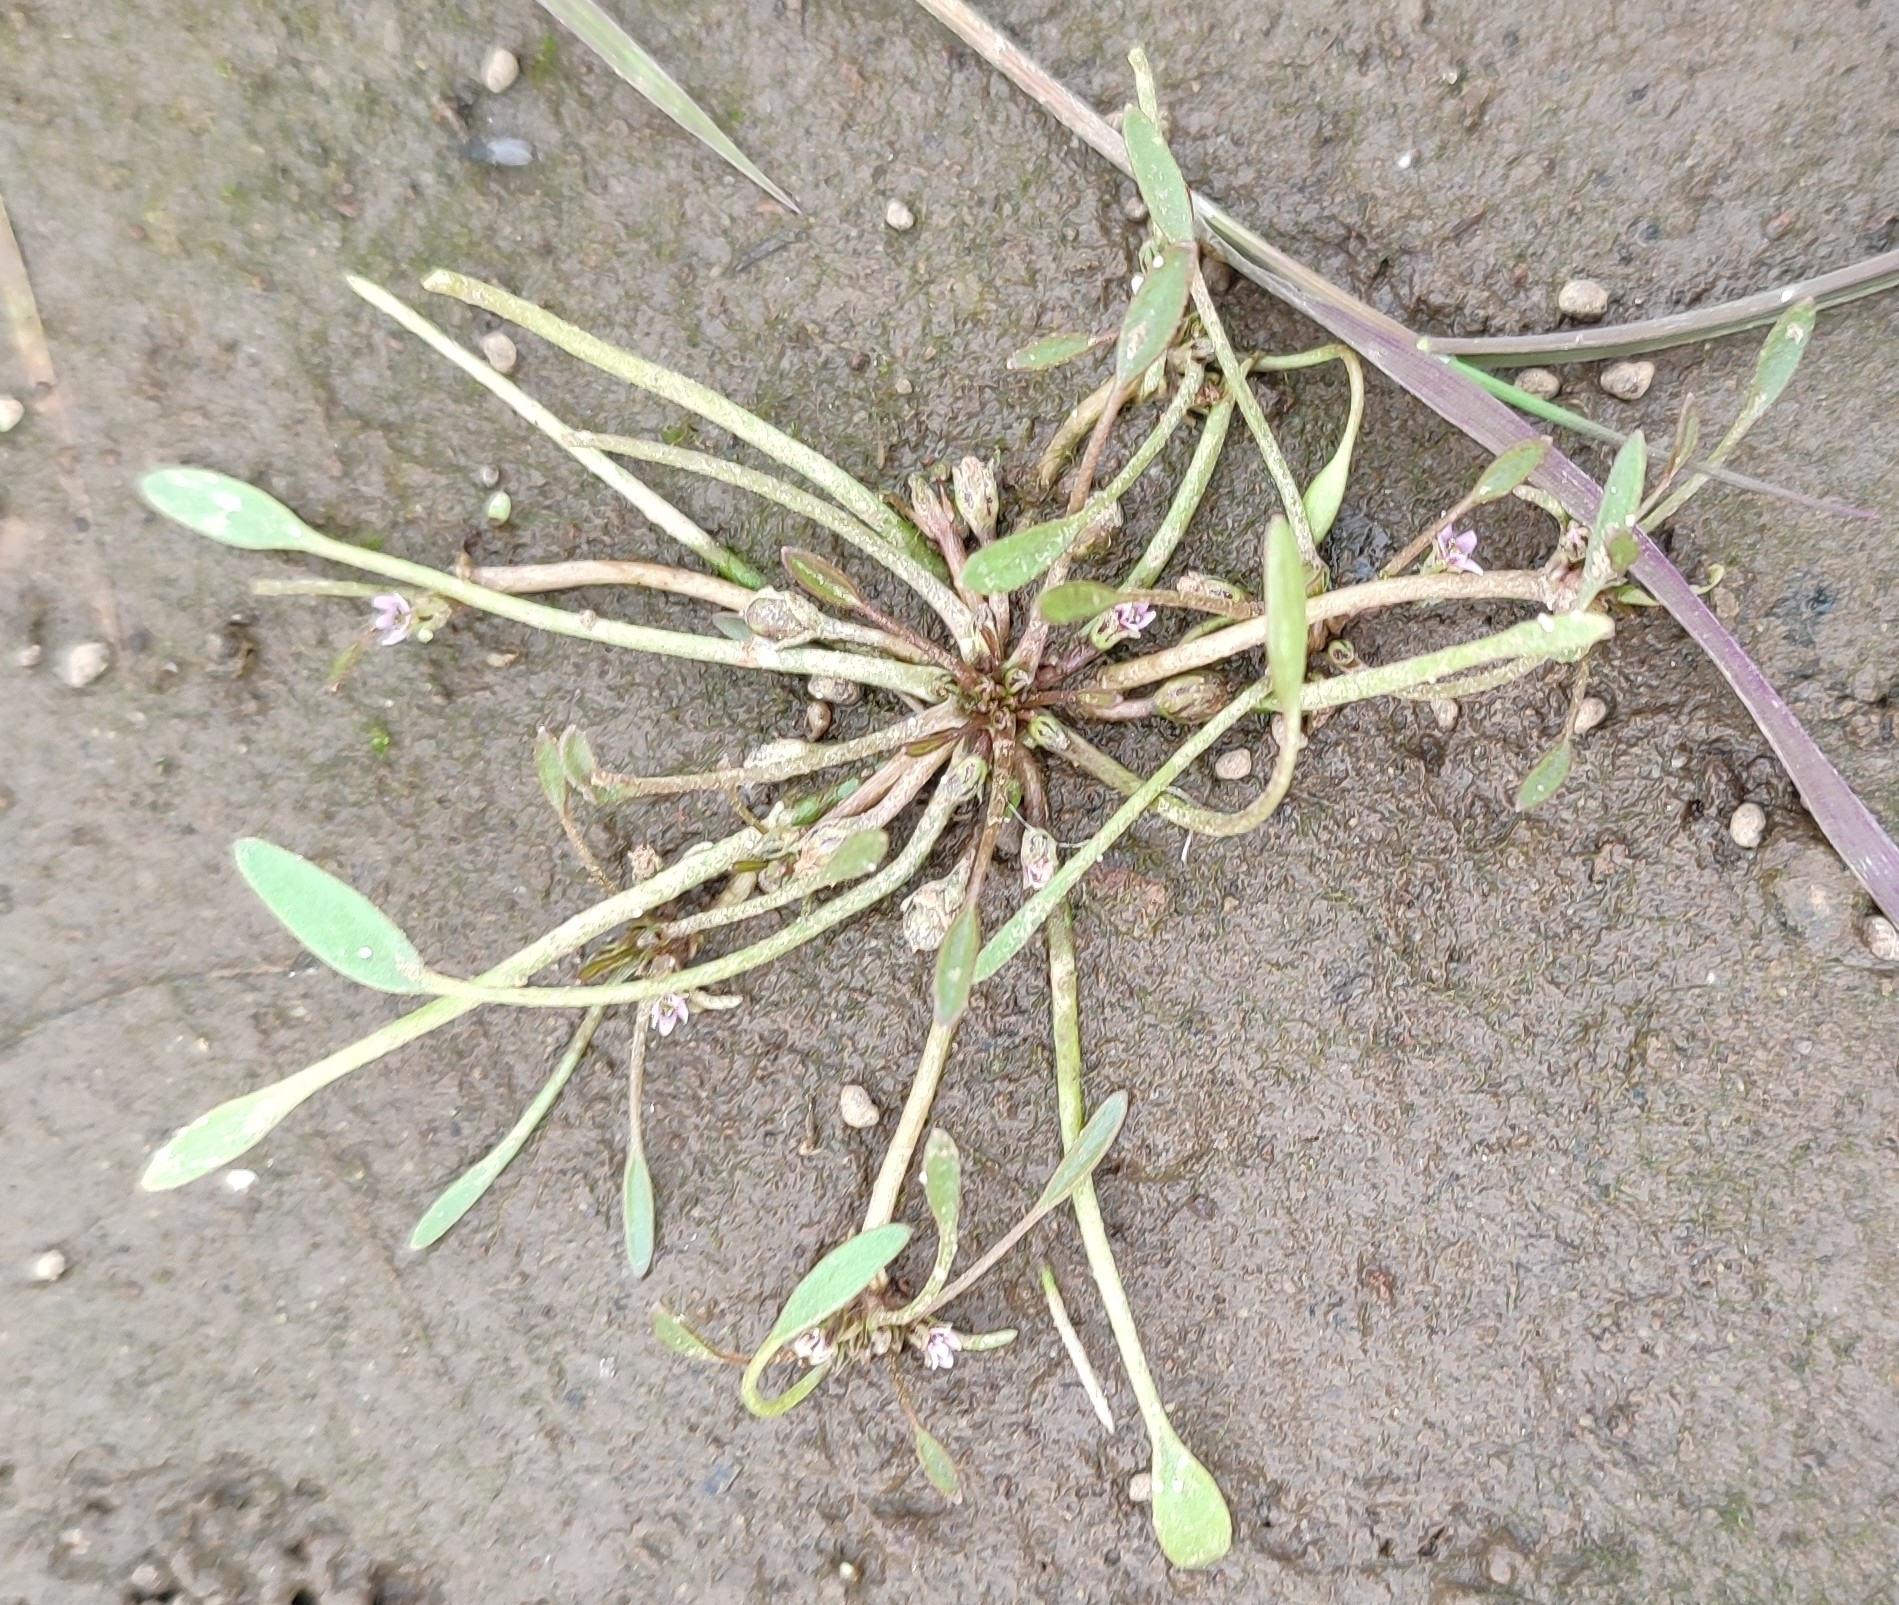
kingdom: Plantae
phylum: Tracheophyta
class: Magnoliopsida
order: Lamiales
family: Scrophulariaceae
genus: Limosella
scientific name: Limosella aquatica
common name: Mudwort
